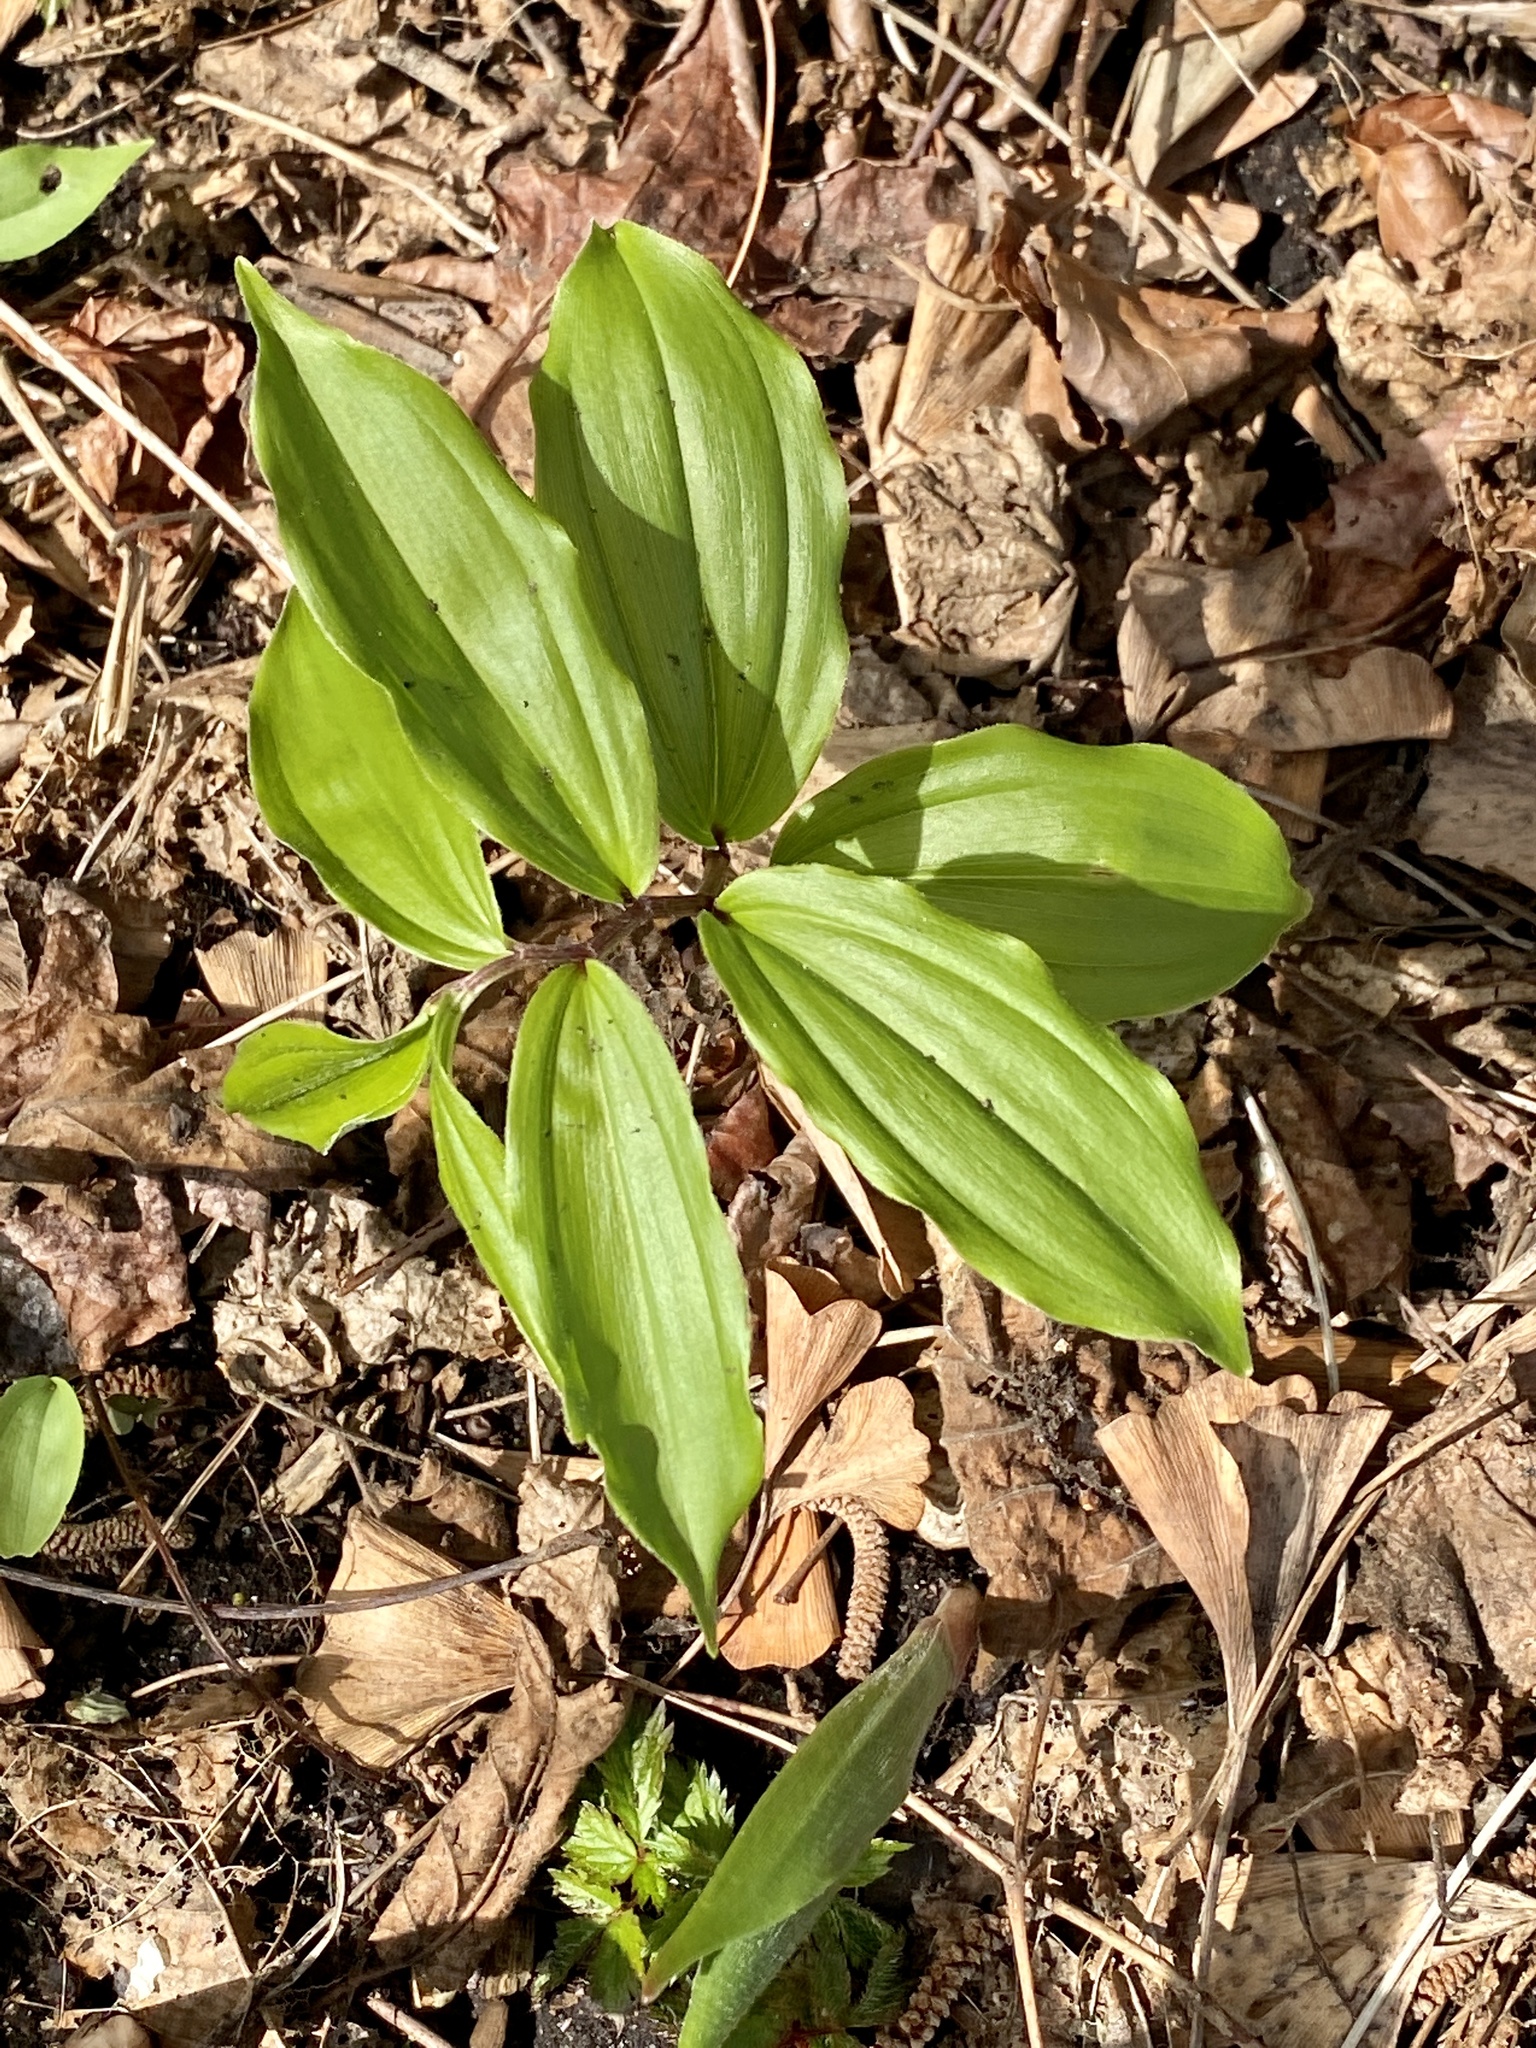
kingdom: Plantae
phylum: Tracheophyta
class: Liliopsida
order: Asparagales
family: Asparagaceae
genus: Maianthemum
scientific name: Maianthemum racemosum
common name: False spikenard
